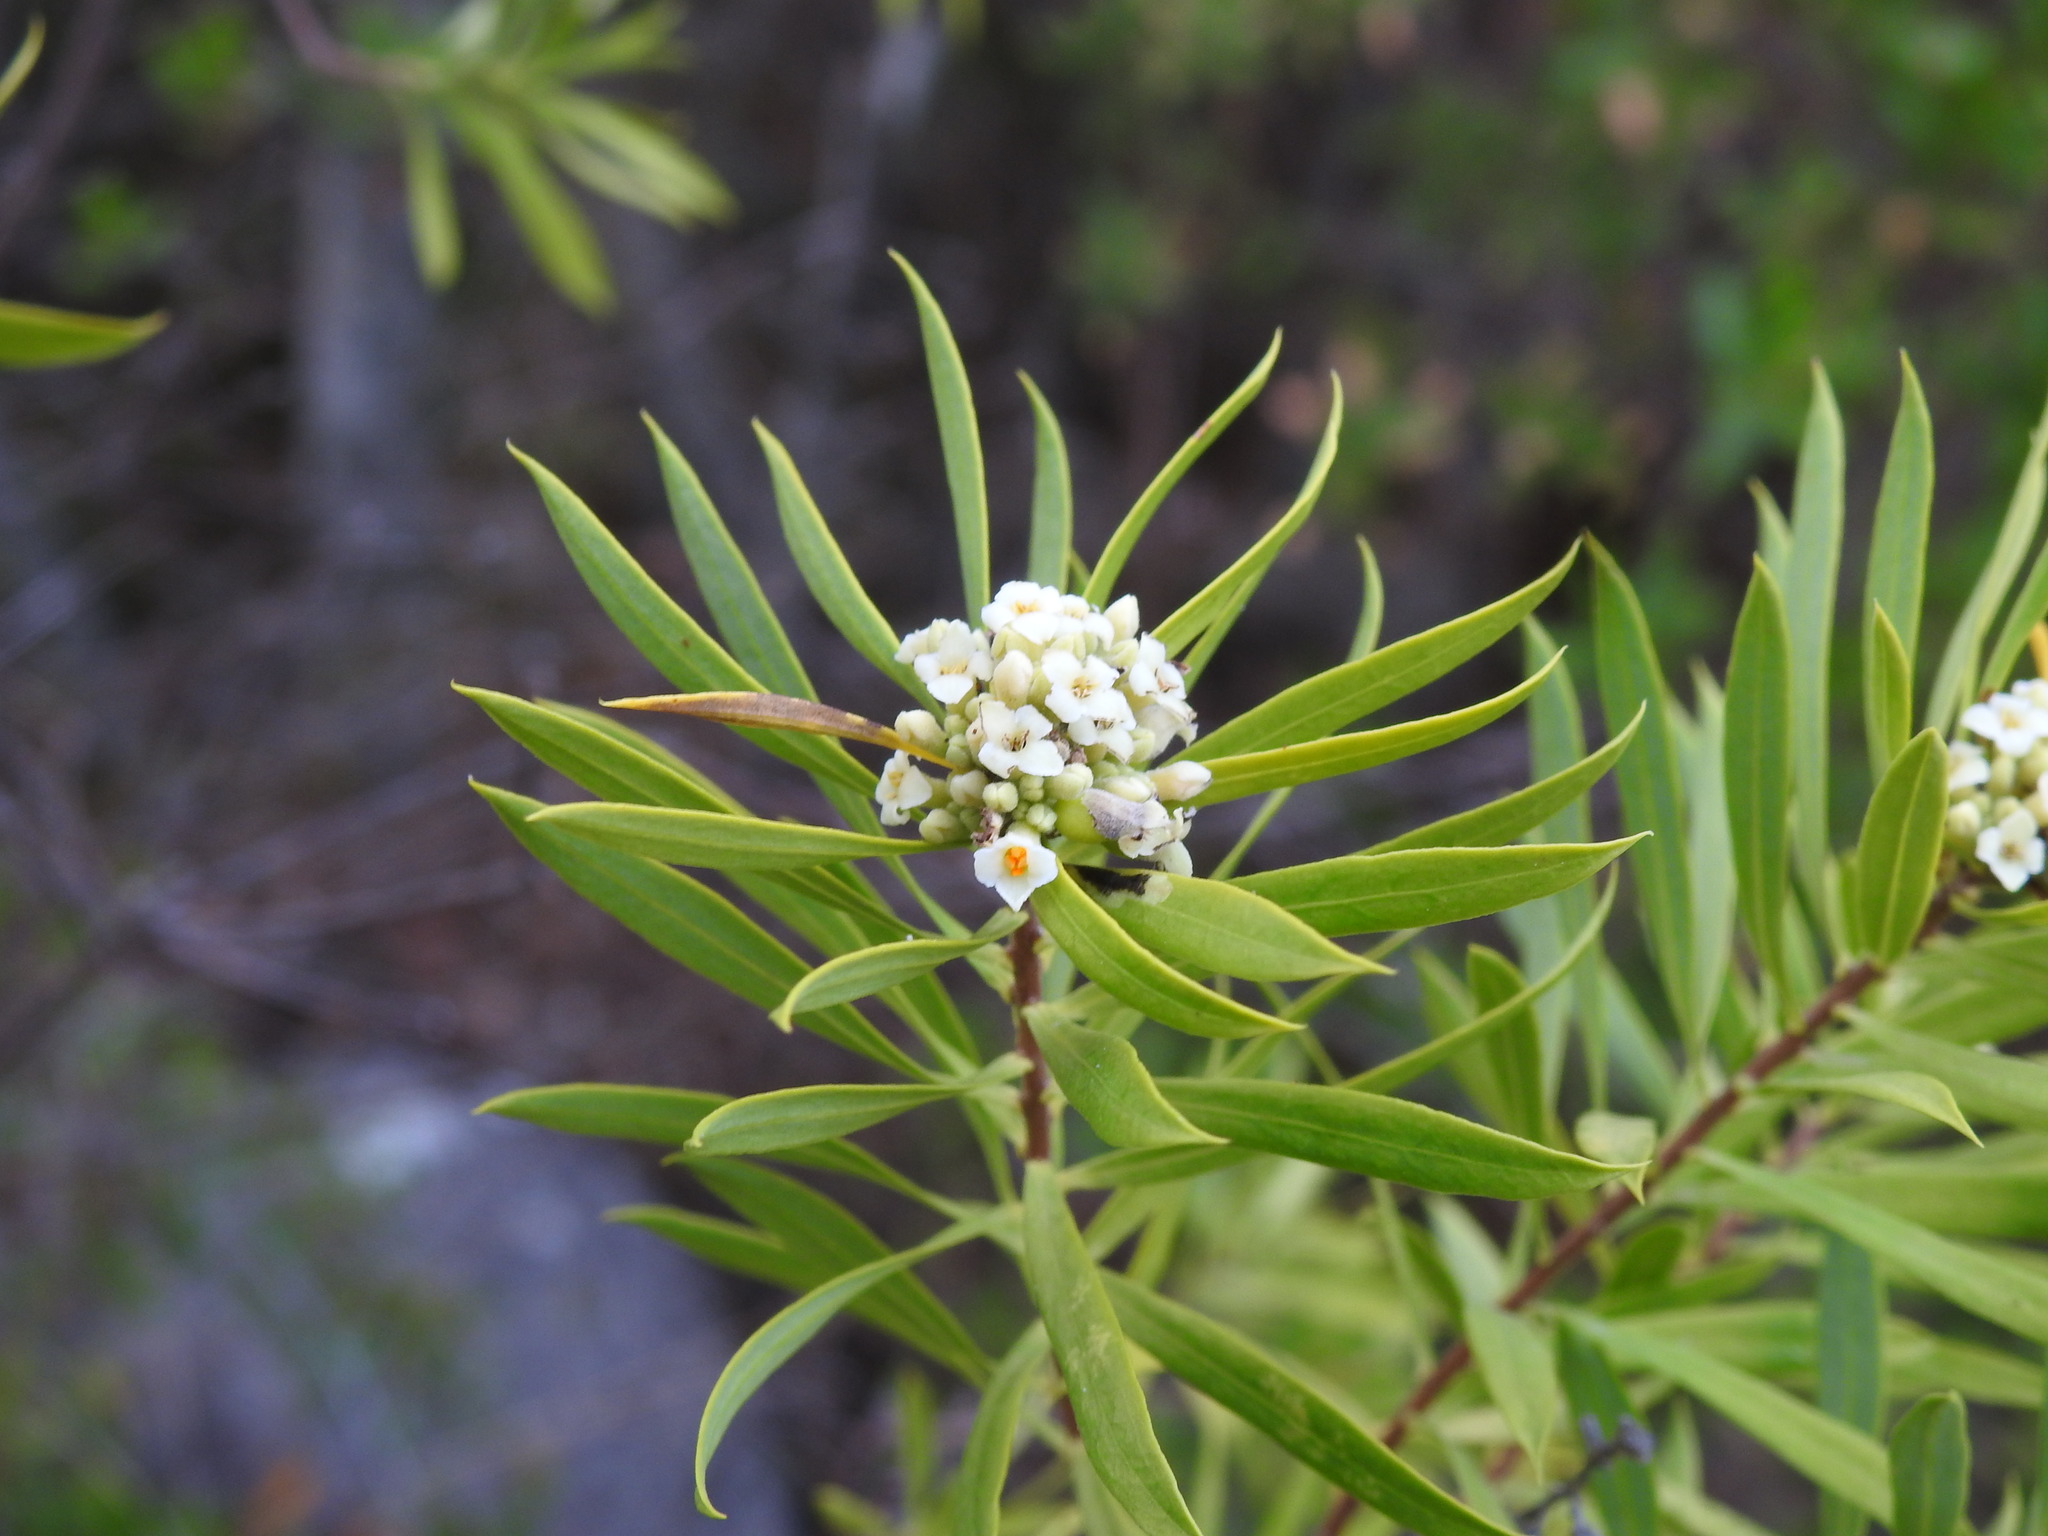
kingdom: Plantae
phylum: Tracheophyta
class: Magnoliopsida
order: Malvales
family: Thymelaeaceae
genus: Daphne
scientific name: Daphne gnidium
